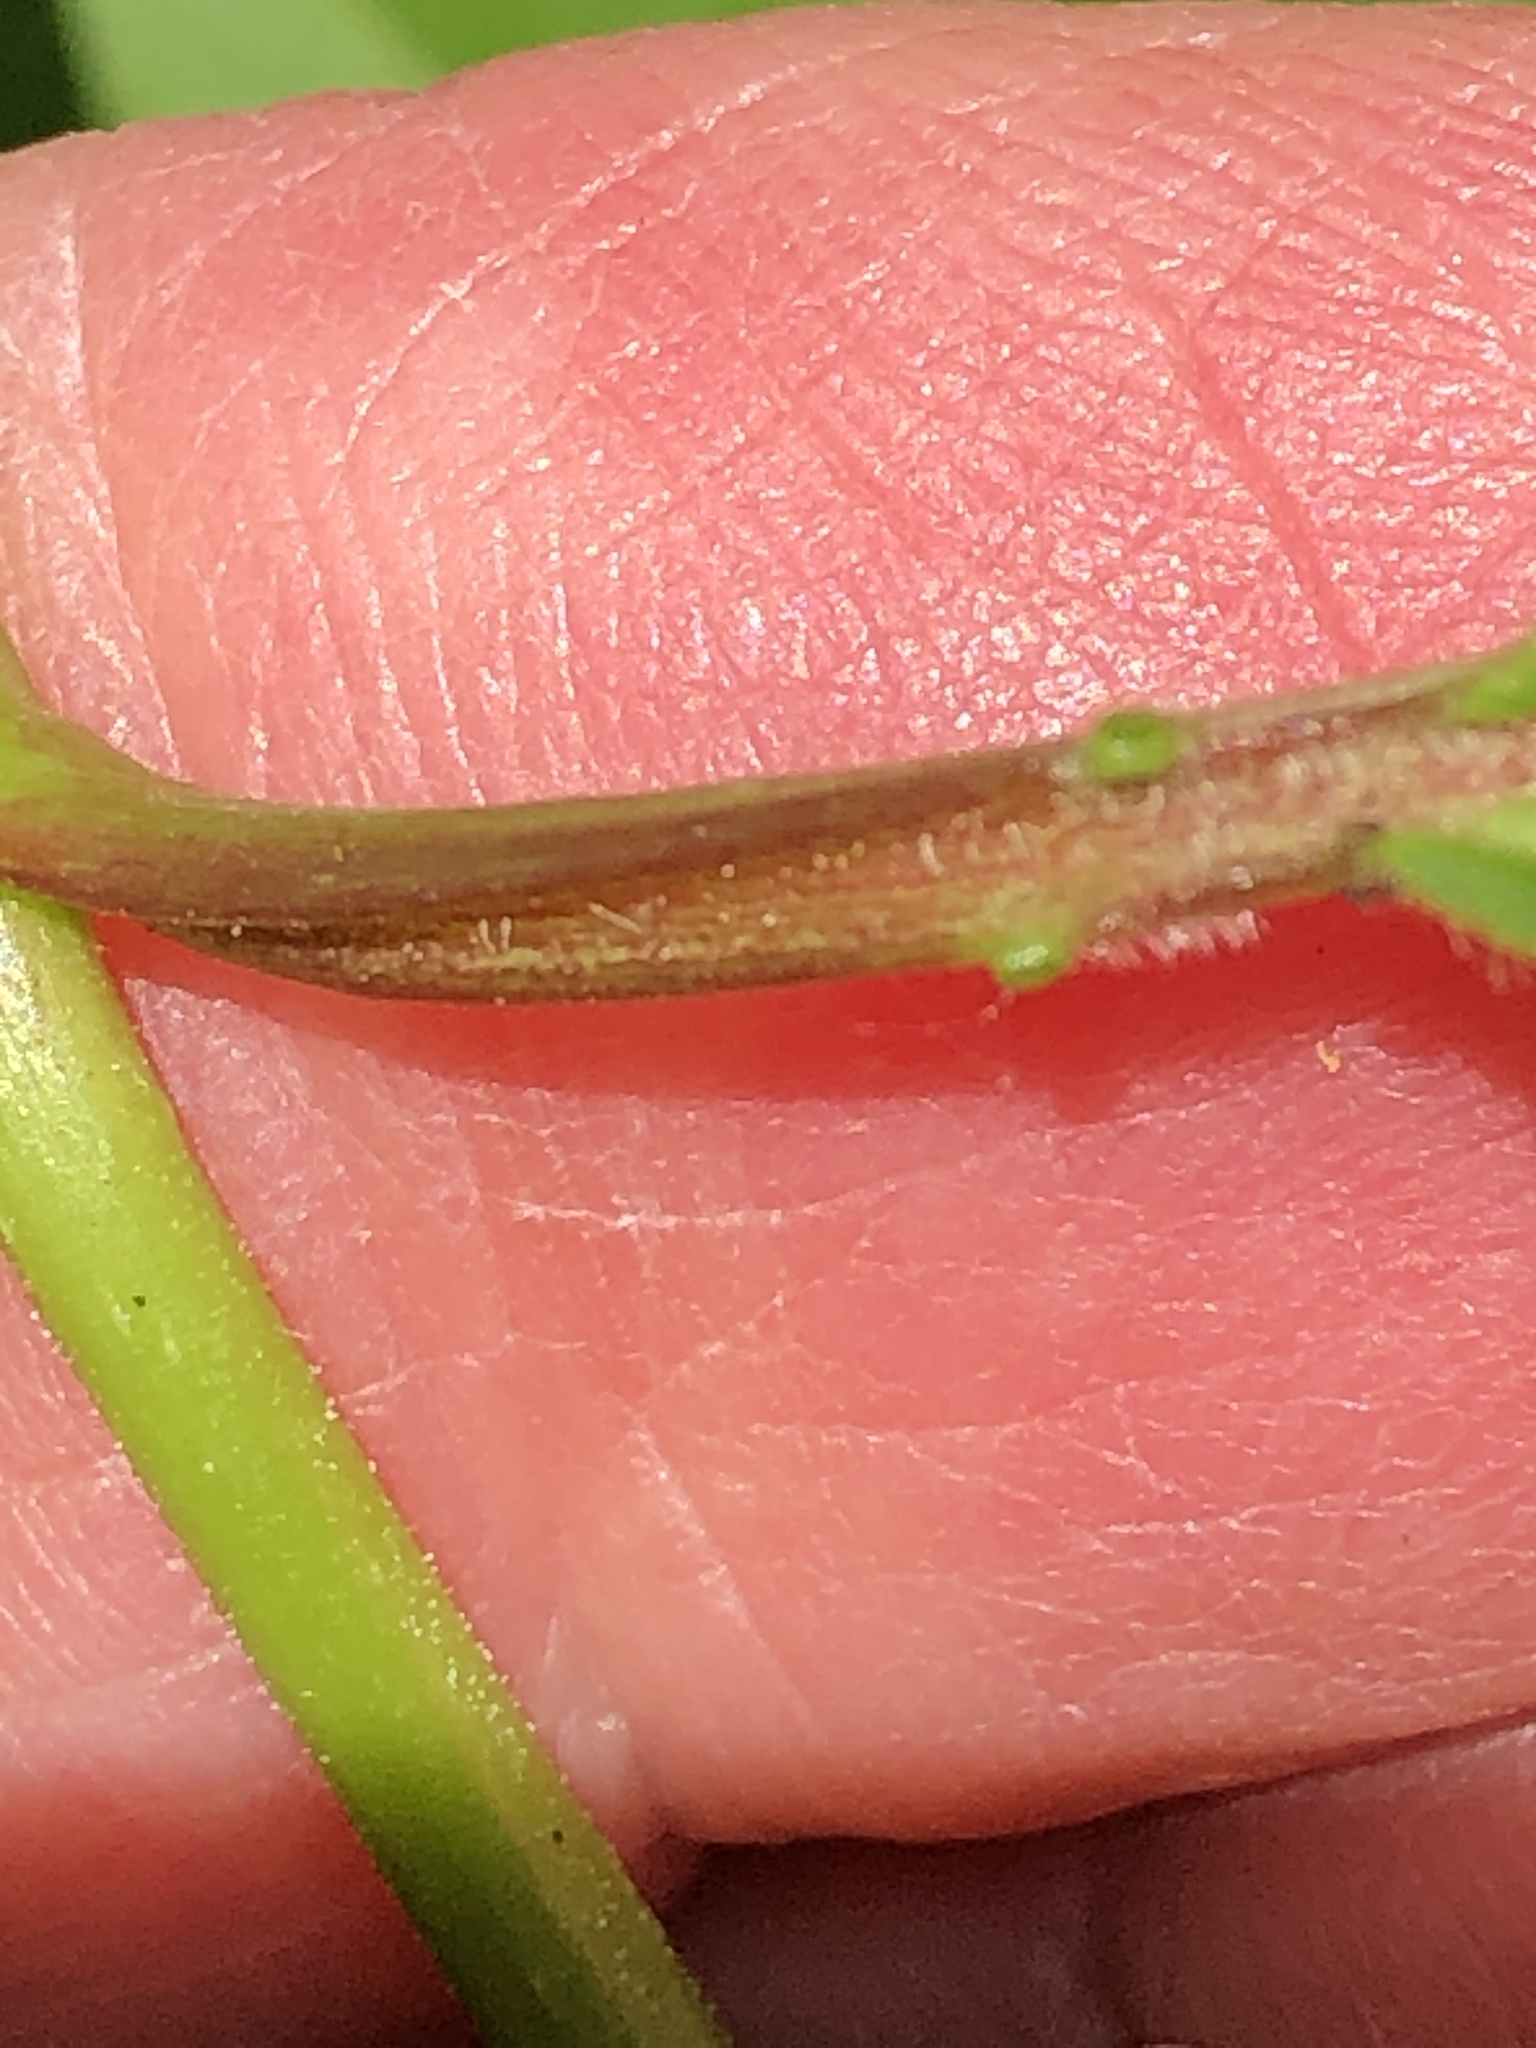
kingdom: Plantae
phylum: Tracheophyta
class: Magnoliopsida
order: Dipsacales
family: Viburnaceae
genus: Viburnum
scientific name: Viburnum opulus
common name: Guelder-rose
